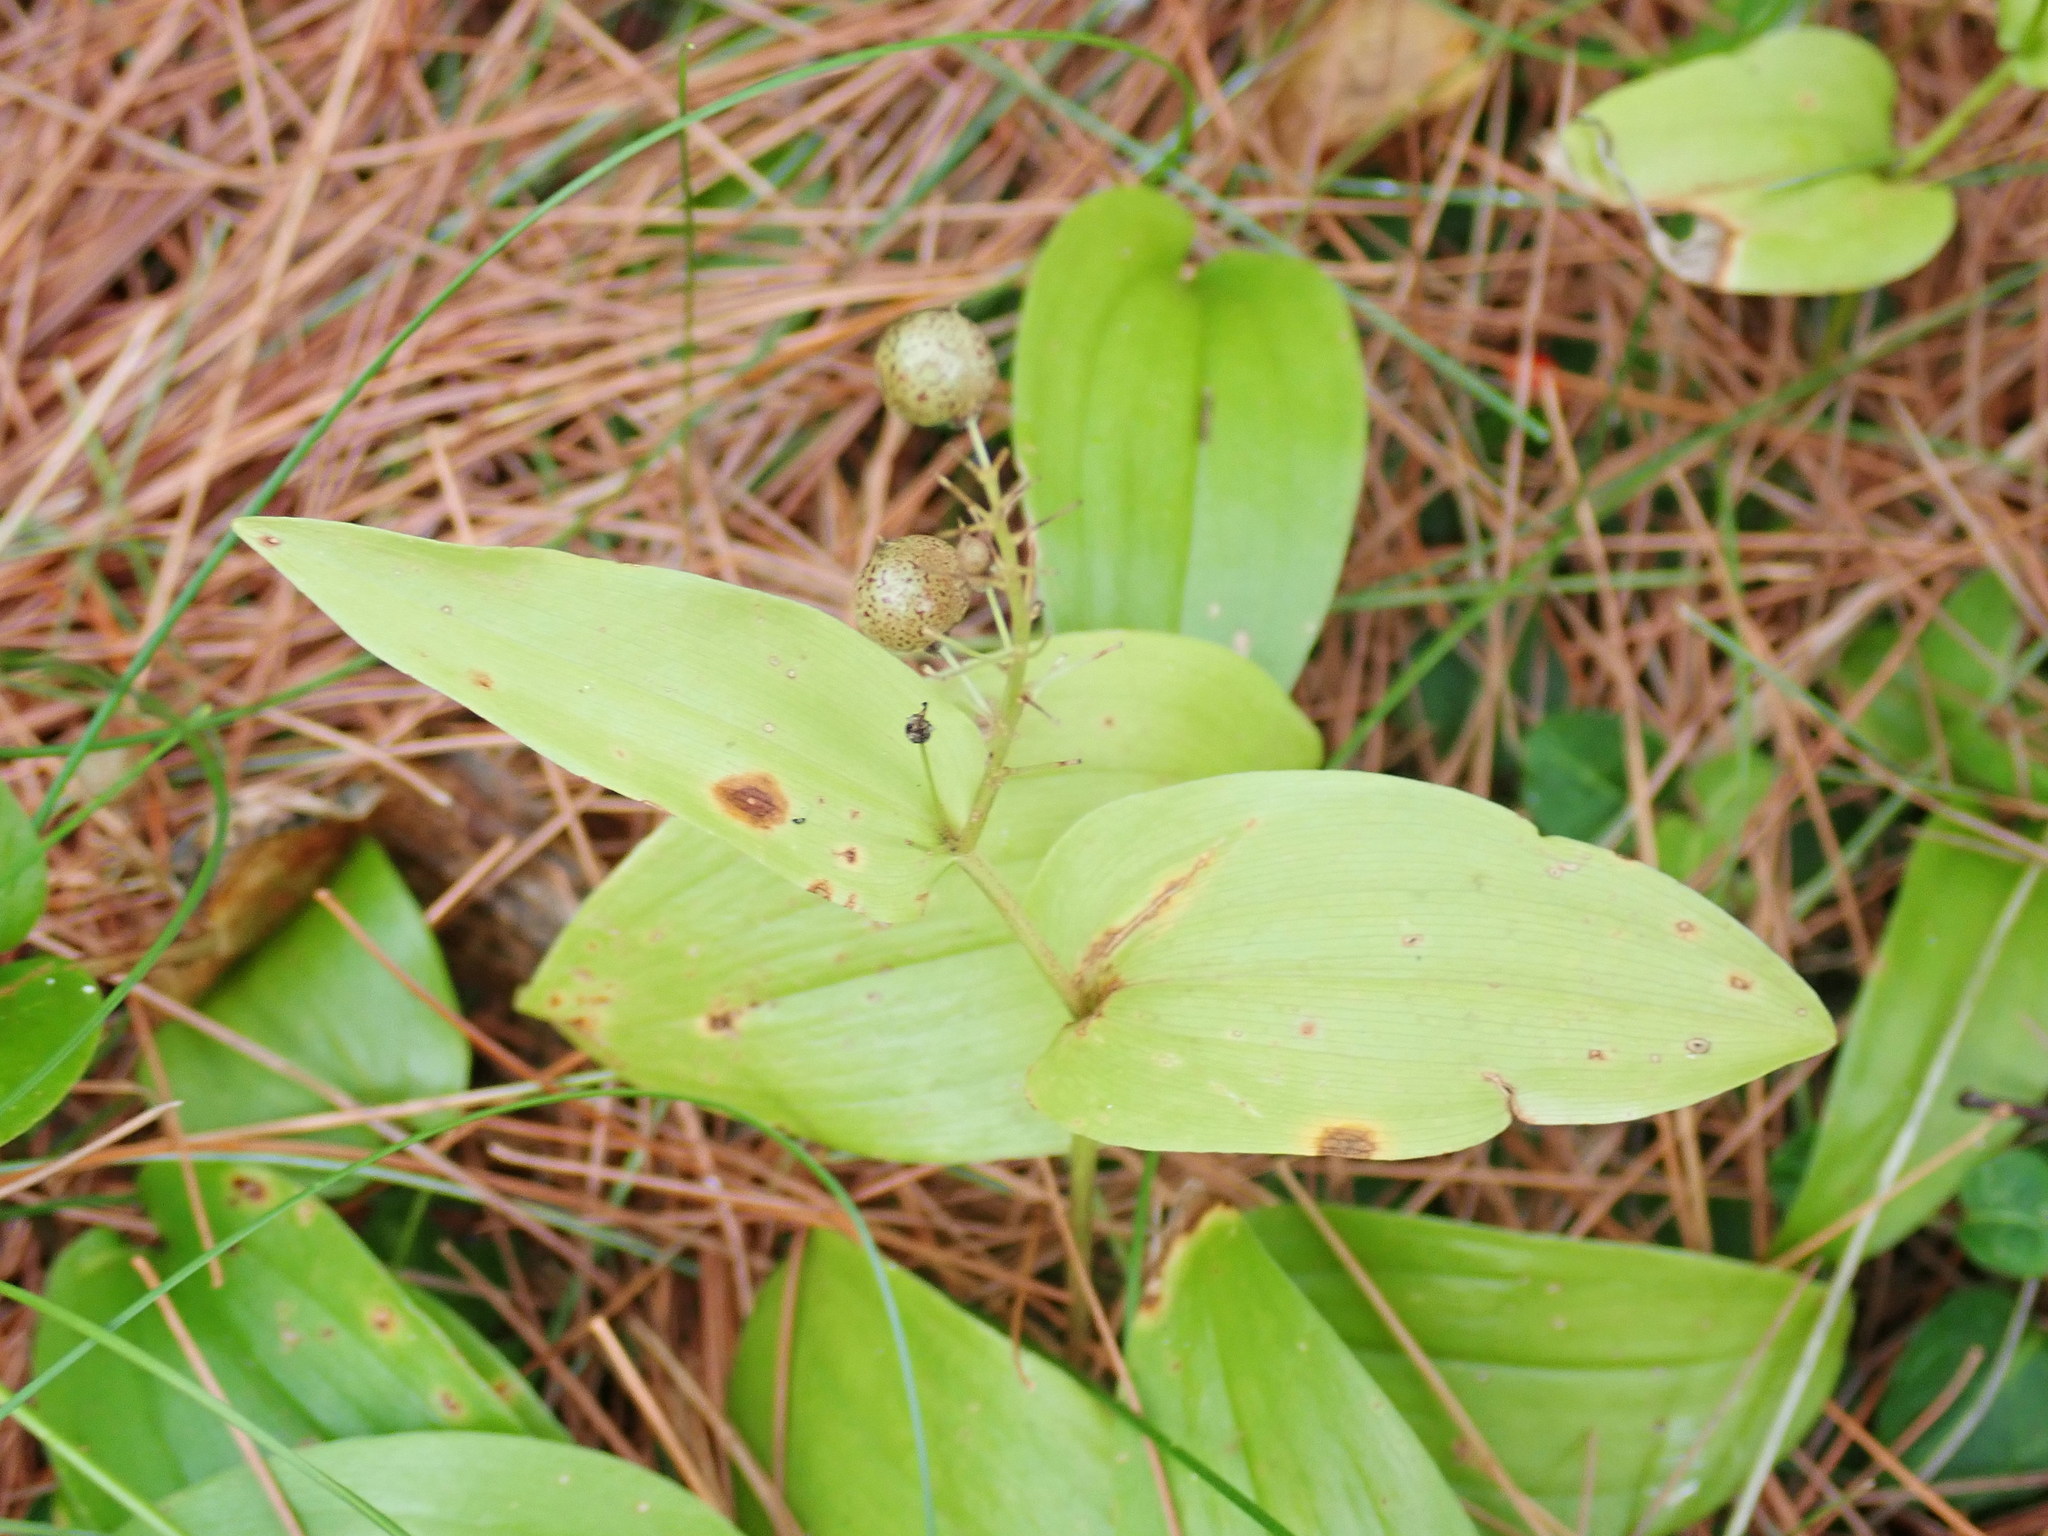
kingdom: Plantae
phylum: Tracheophyta
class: Liliopsida
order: Asparagales
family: Asparagaceae
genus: Maianthemum
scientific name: Maianthemum canadense
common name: False lily-of-the-valley
